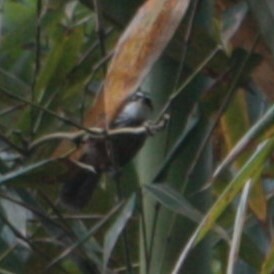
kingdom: Animalia
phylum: Chordata
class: Aves
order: Passeriformes
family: Timaliidae
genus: Pomatorhinus
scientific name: Pomatorhinus musicus
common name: Taiwan scimitar-babbler
